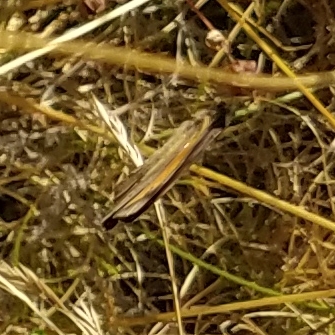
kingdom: Animalia
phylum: Arthropoda
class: Insecta
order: Lepidoptera
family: Nymphalidae
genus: Maniola
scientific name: Maniola jurtina
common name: Meadow brown
